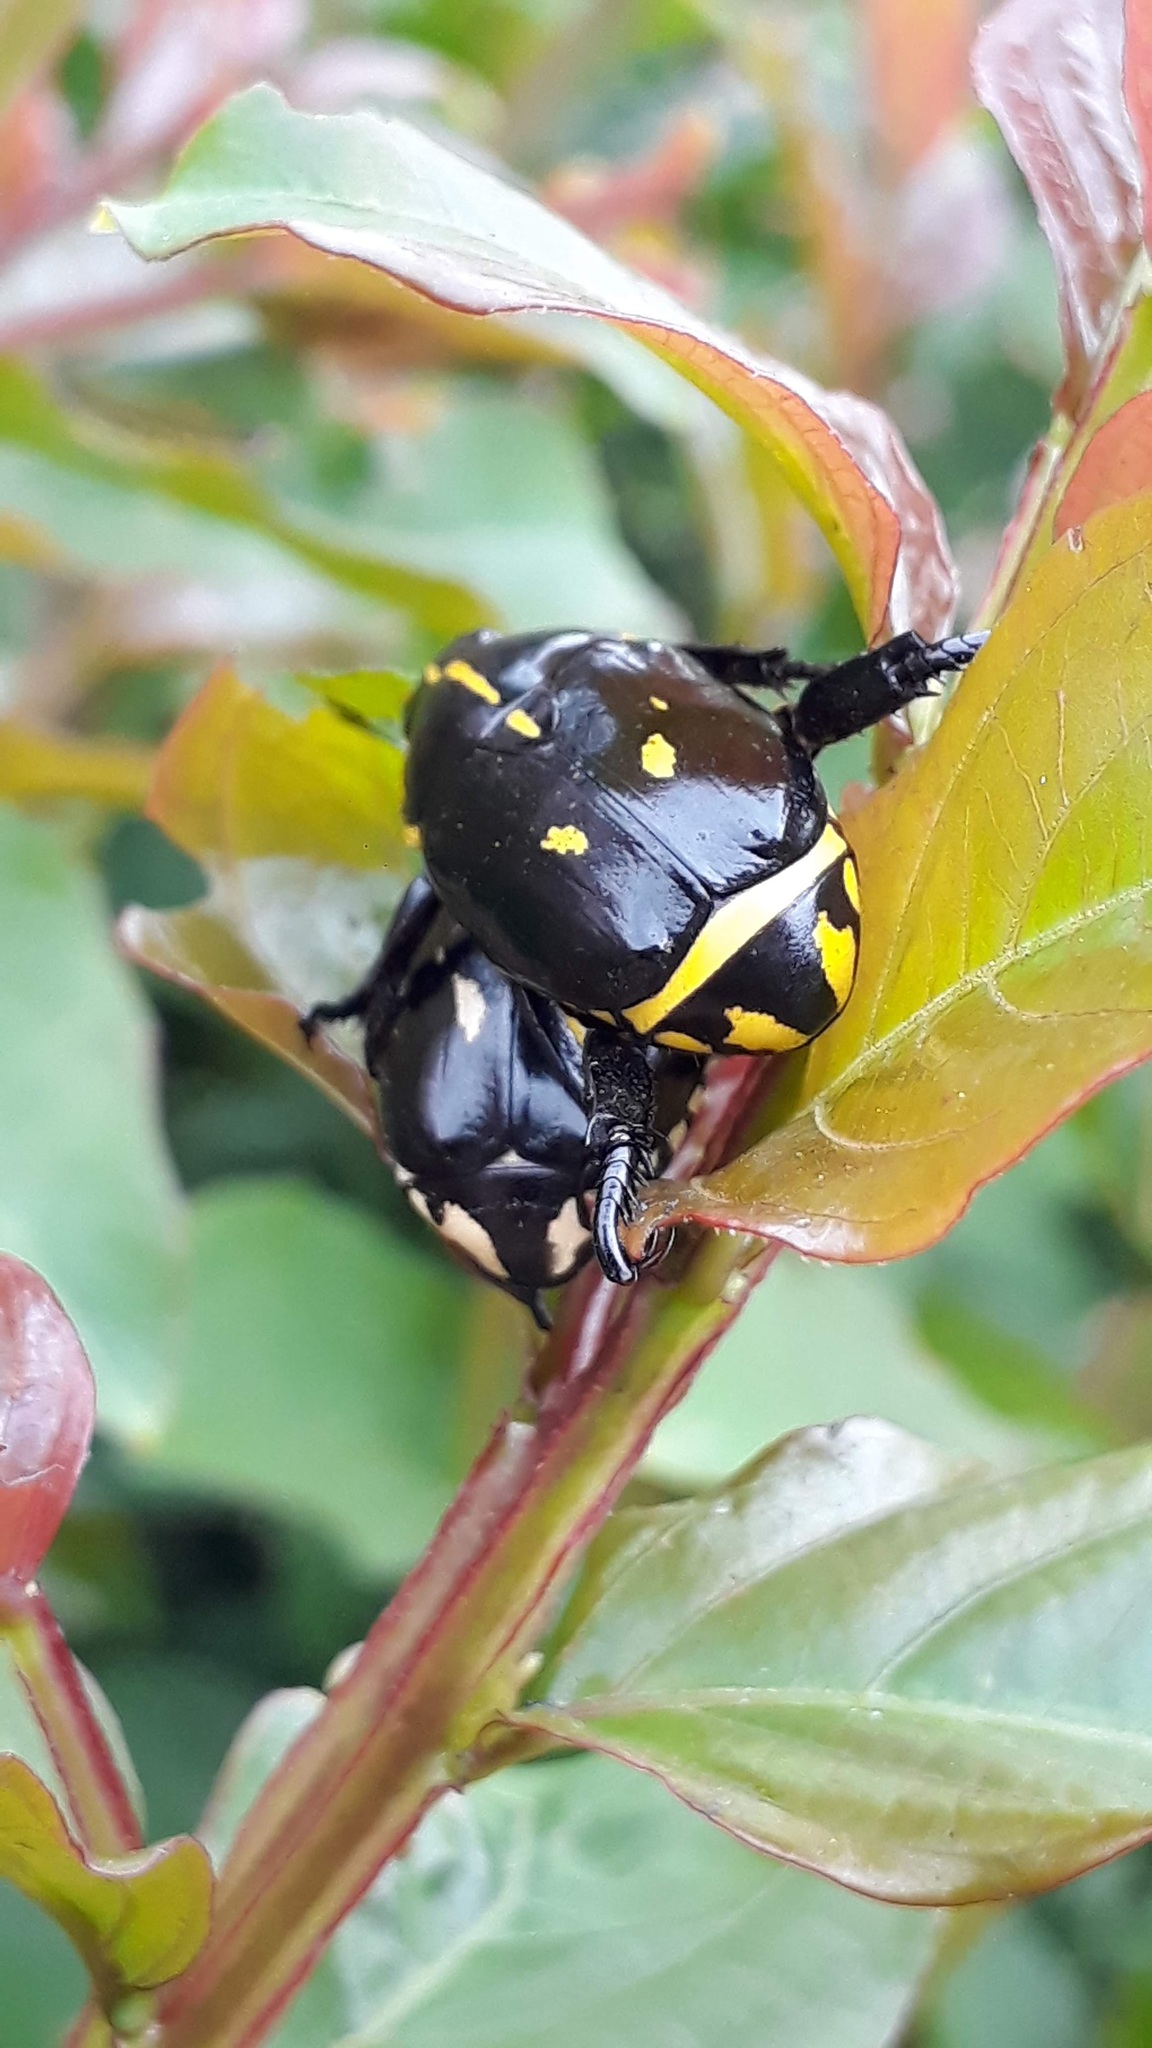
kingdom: Animalia
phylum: Arthropoda
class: Insecta
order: Coleoptera
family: Scarabaeidae
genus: Rutela
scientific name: Rutela lineola
